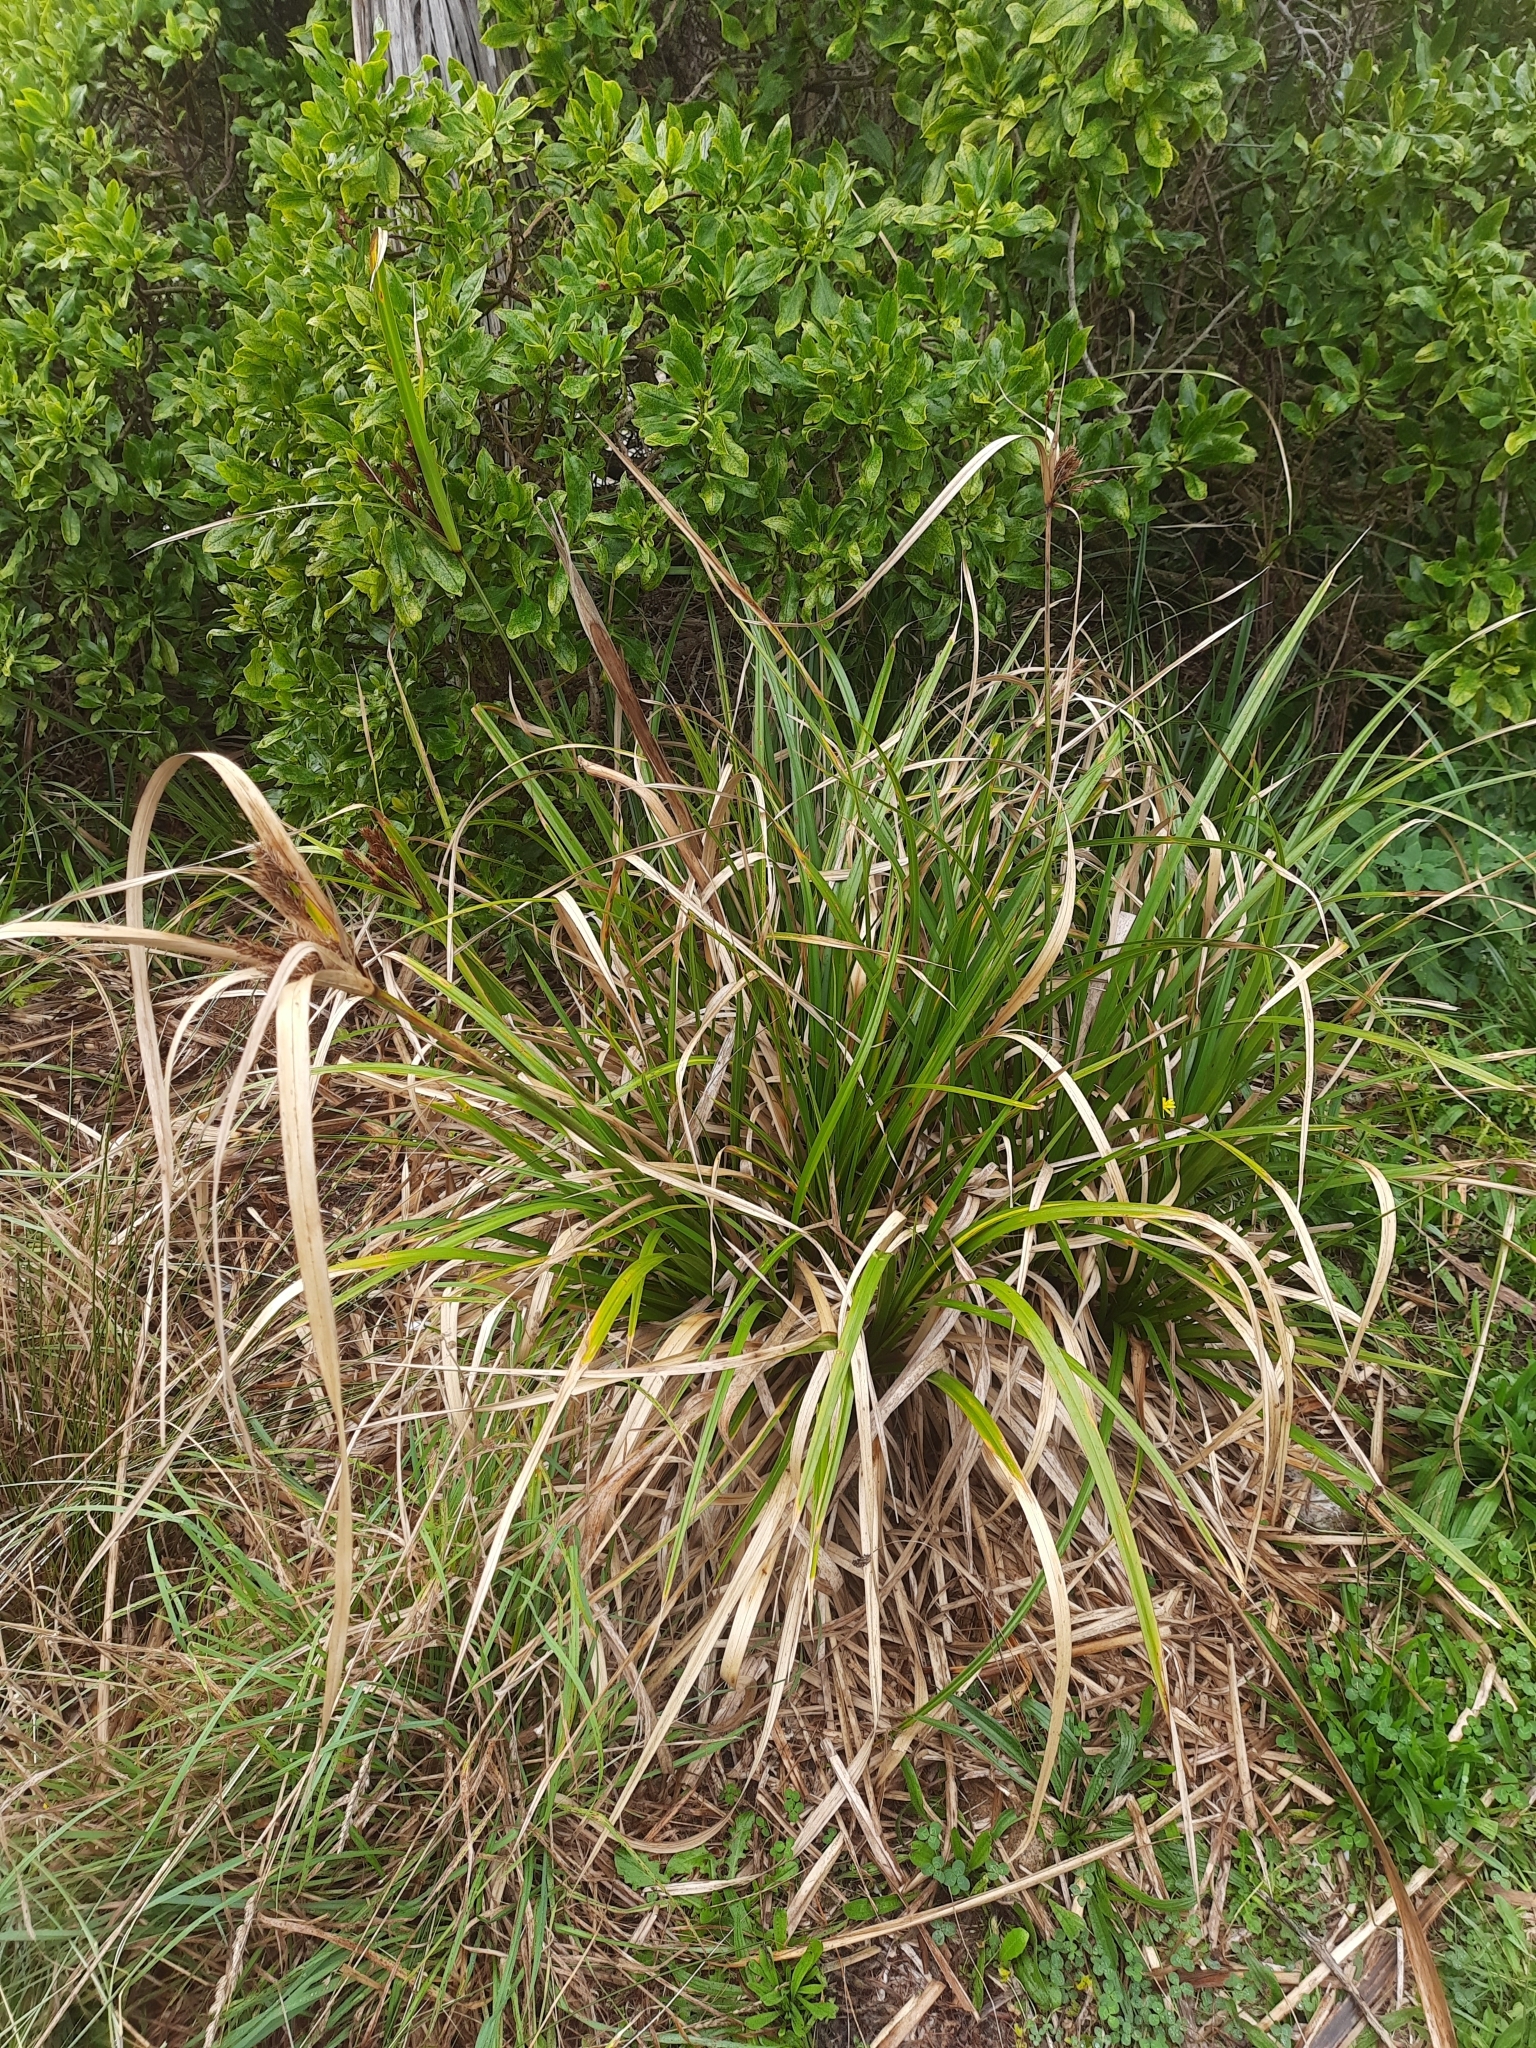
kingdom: Plantae
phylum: Tracheophyta
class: Liliopsida
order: Poales
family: Cyperaceae
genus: Cyperus
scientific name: Cyperus ustulatus
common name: Giant umbrella-sedge
